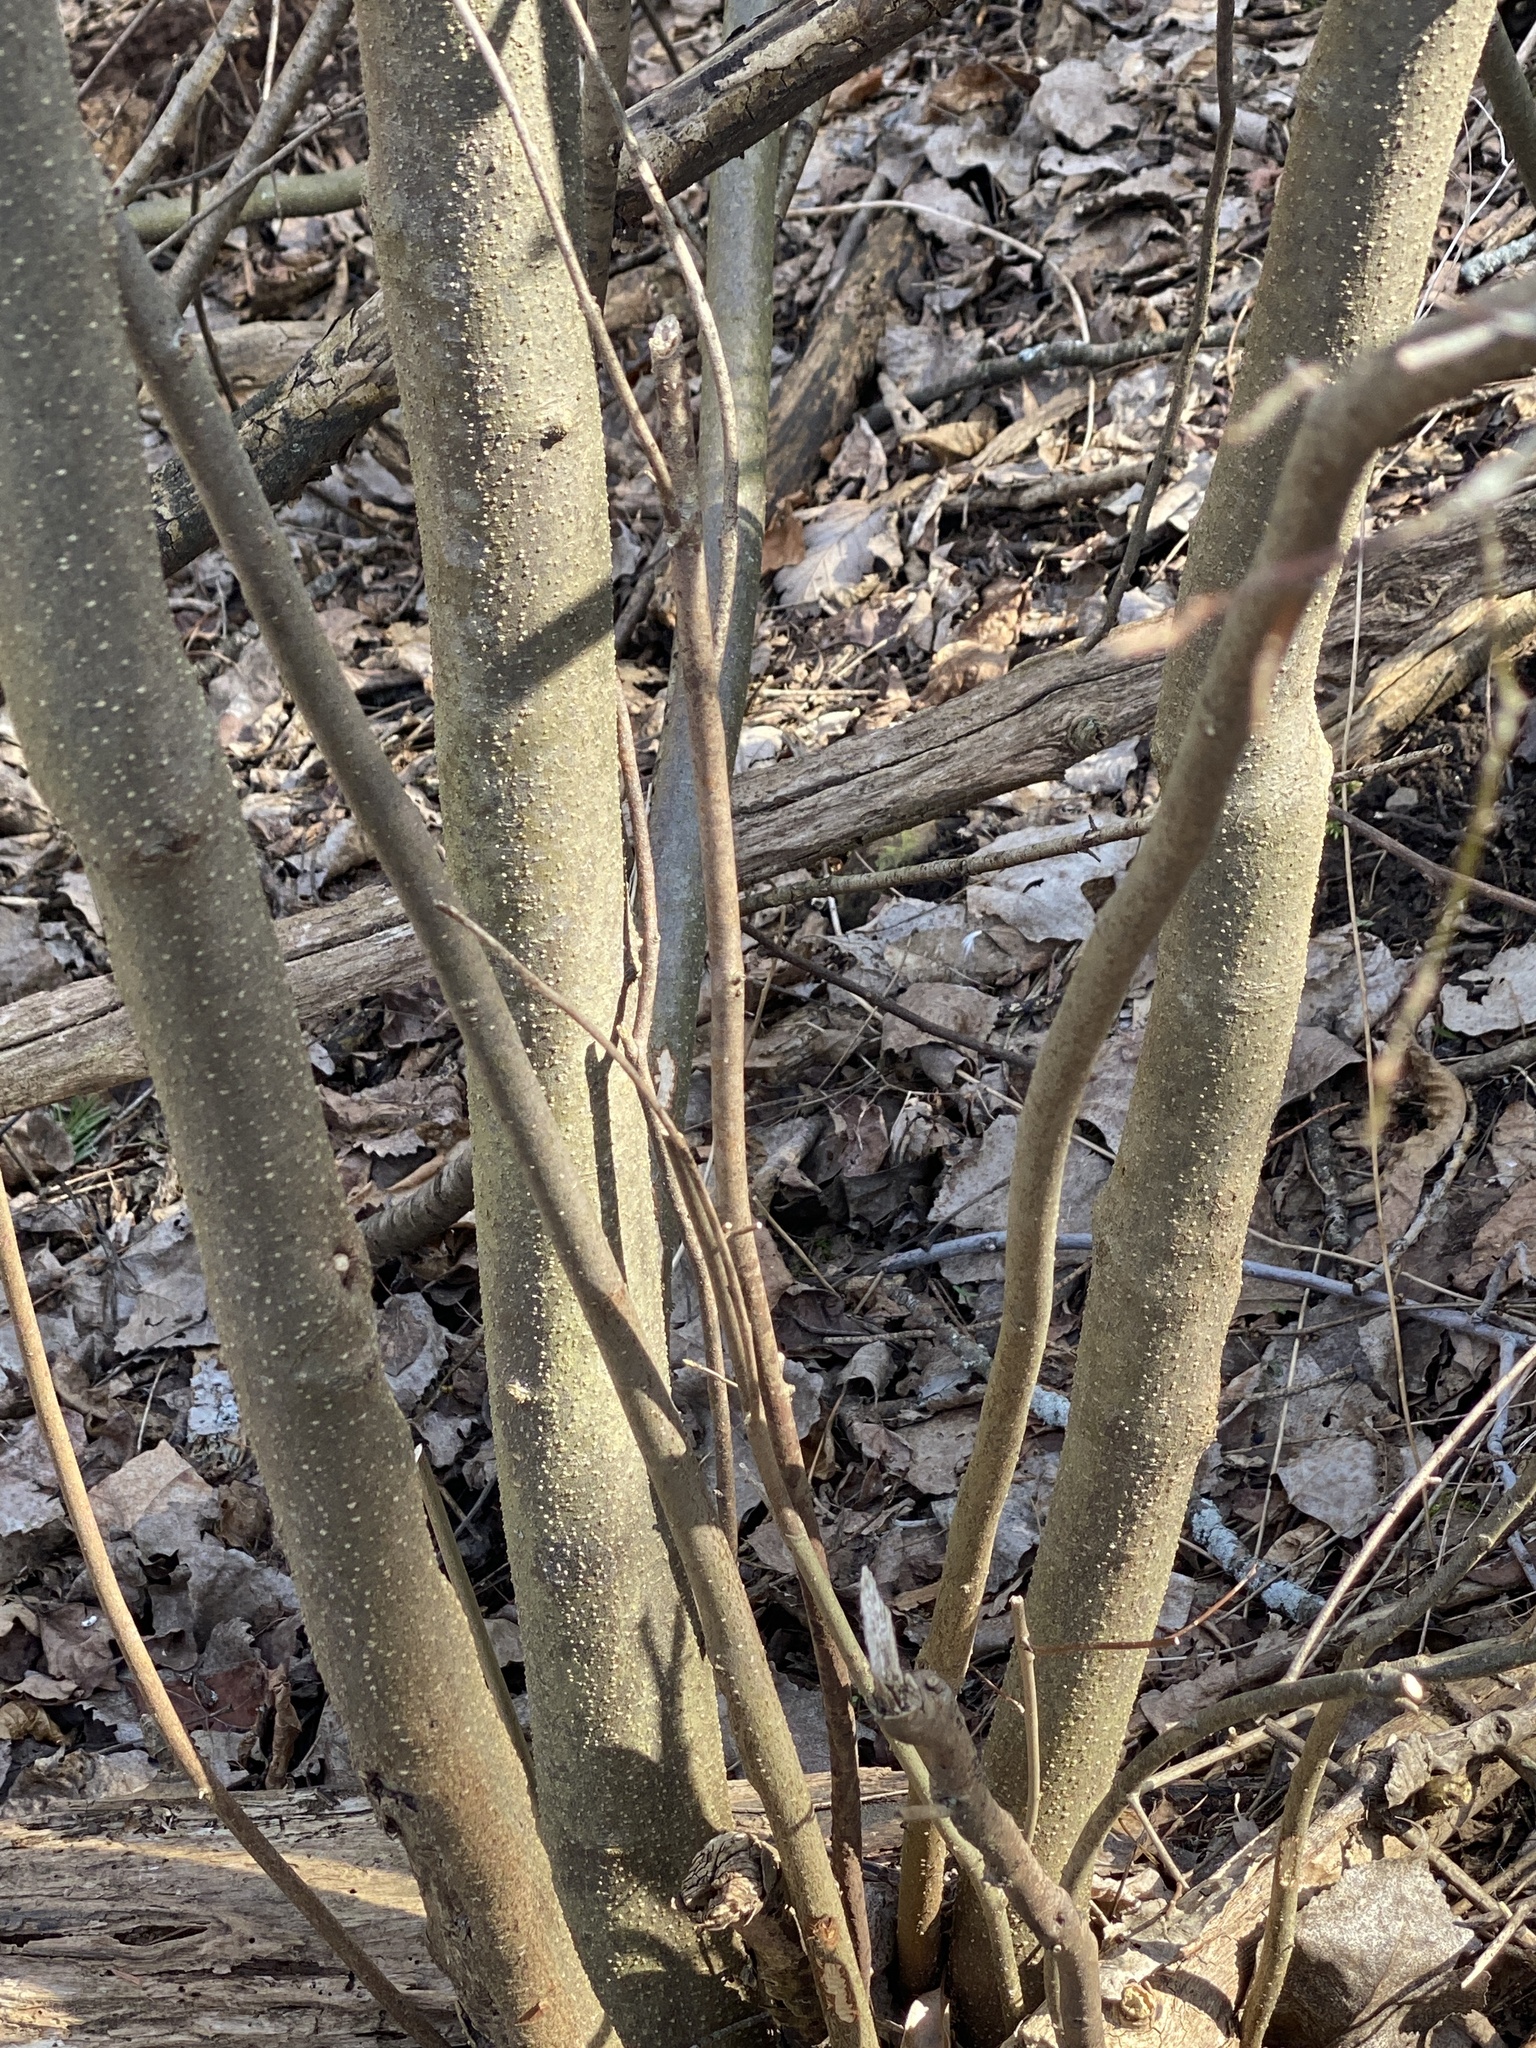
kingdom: Plantae
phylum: Tracheophyta
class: Magnoliopsida
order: Laurales
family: Lauraceae
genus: Lindera
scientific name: Lindera benzoin
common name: Spicebush
